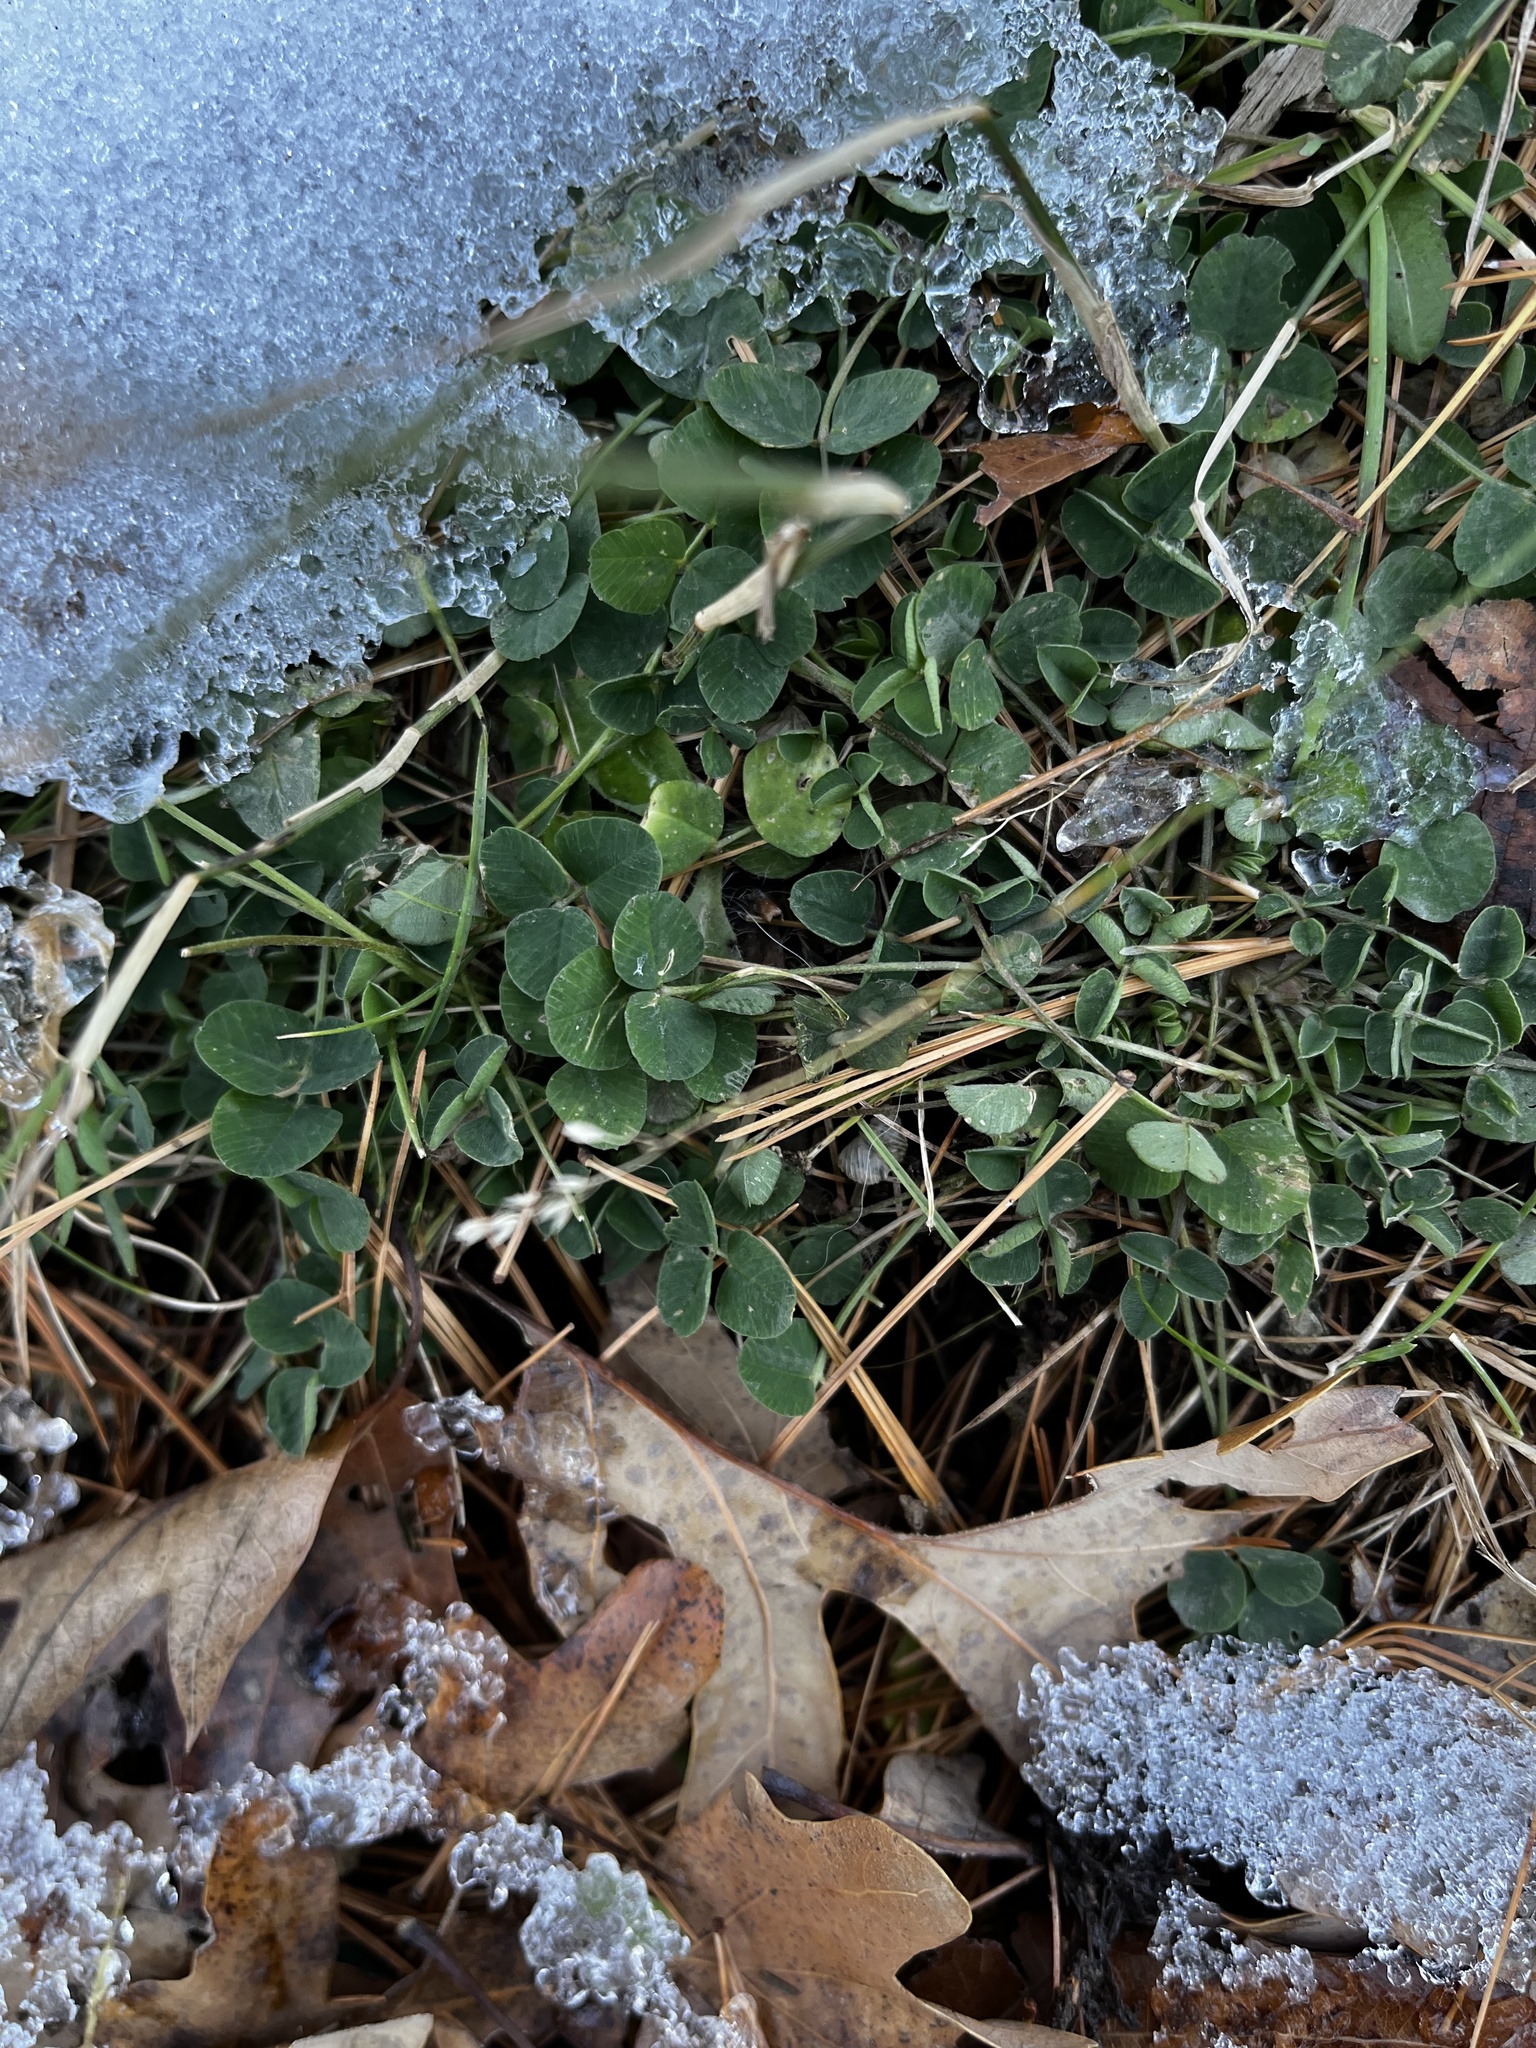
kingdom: Plantae
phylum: Tracheophyta
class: Magnoliopsida
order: Fabales
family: Fabaceae
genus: Medicago
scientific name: Medicago lupulina
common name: Black medick
